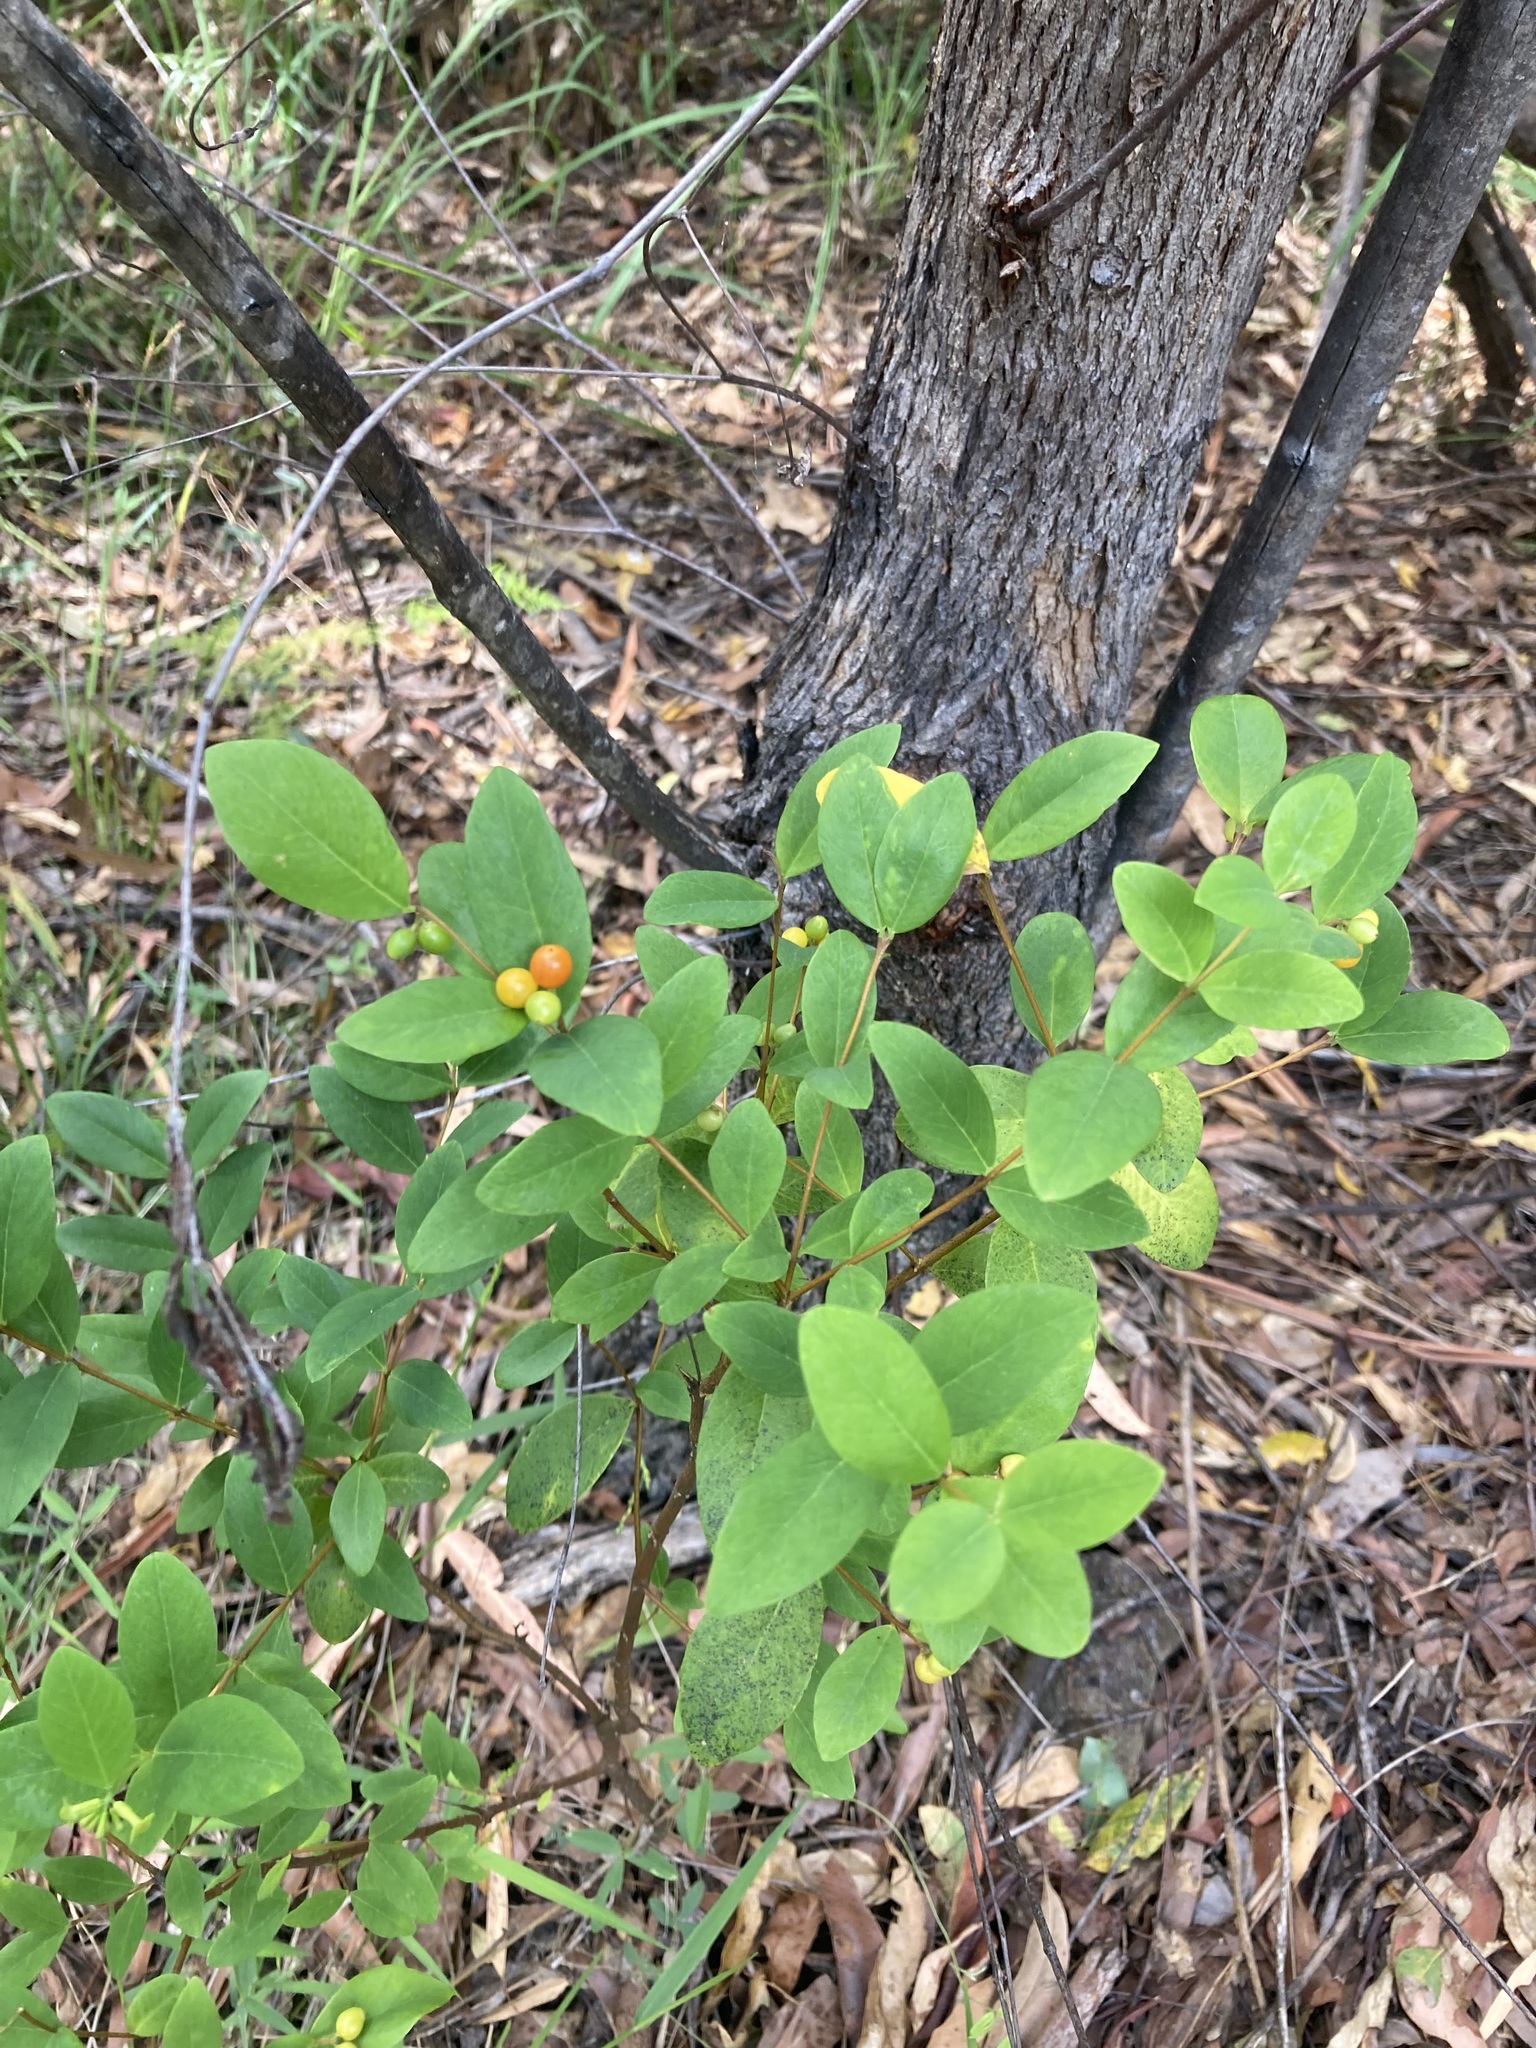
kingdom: Plantae
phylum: Tracheophyta
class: Magnoliopsida
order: Malvales
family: Thymelaeaceae
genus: Wikstroemia
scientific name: Wikstroemia indica
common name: Tiebush
